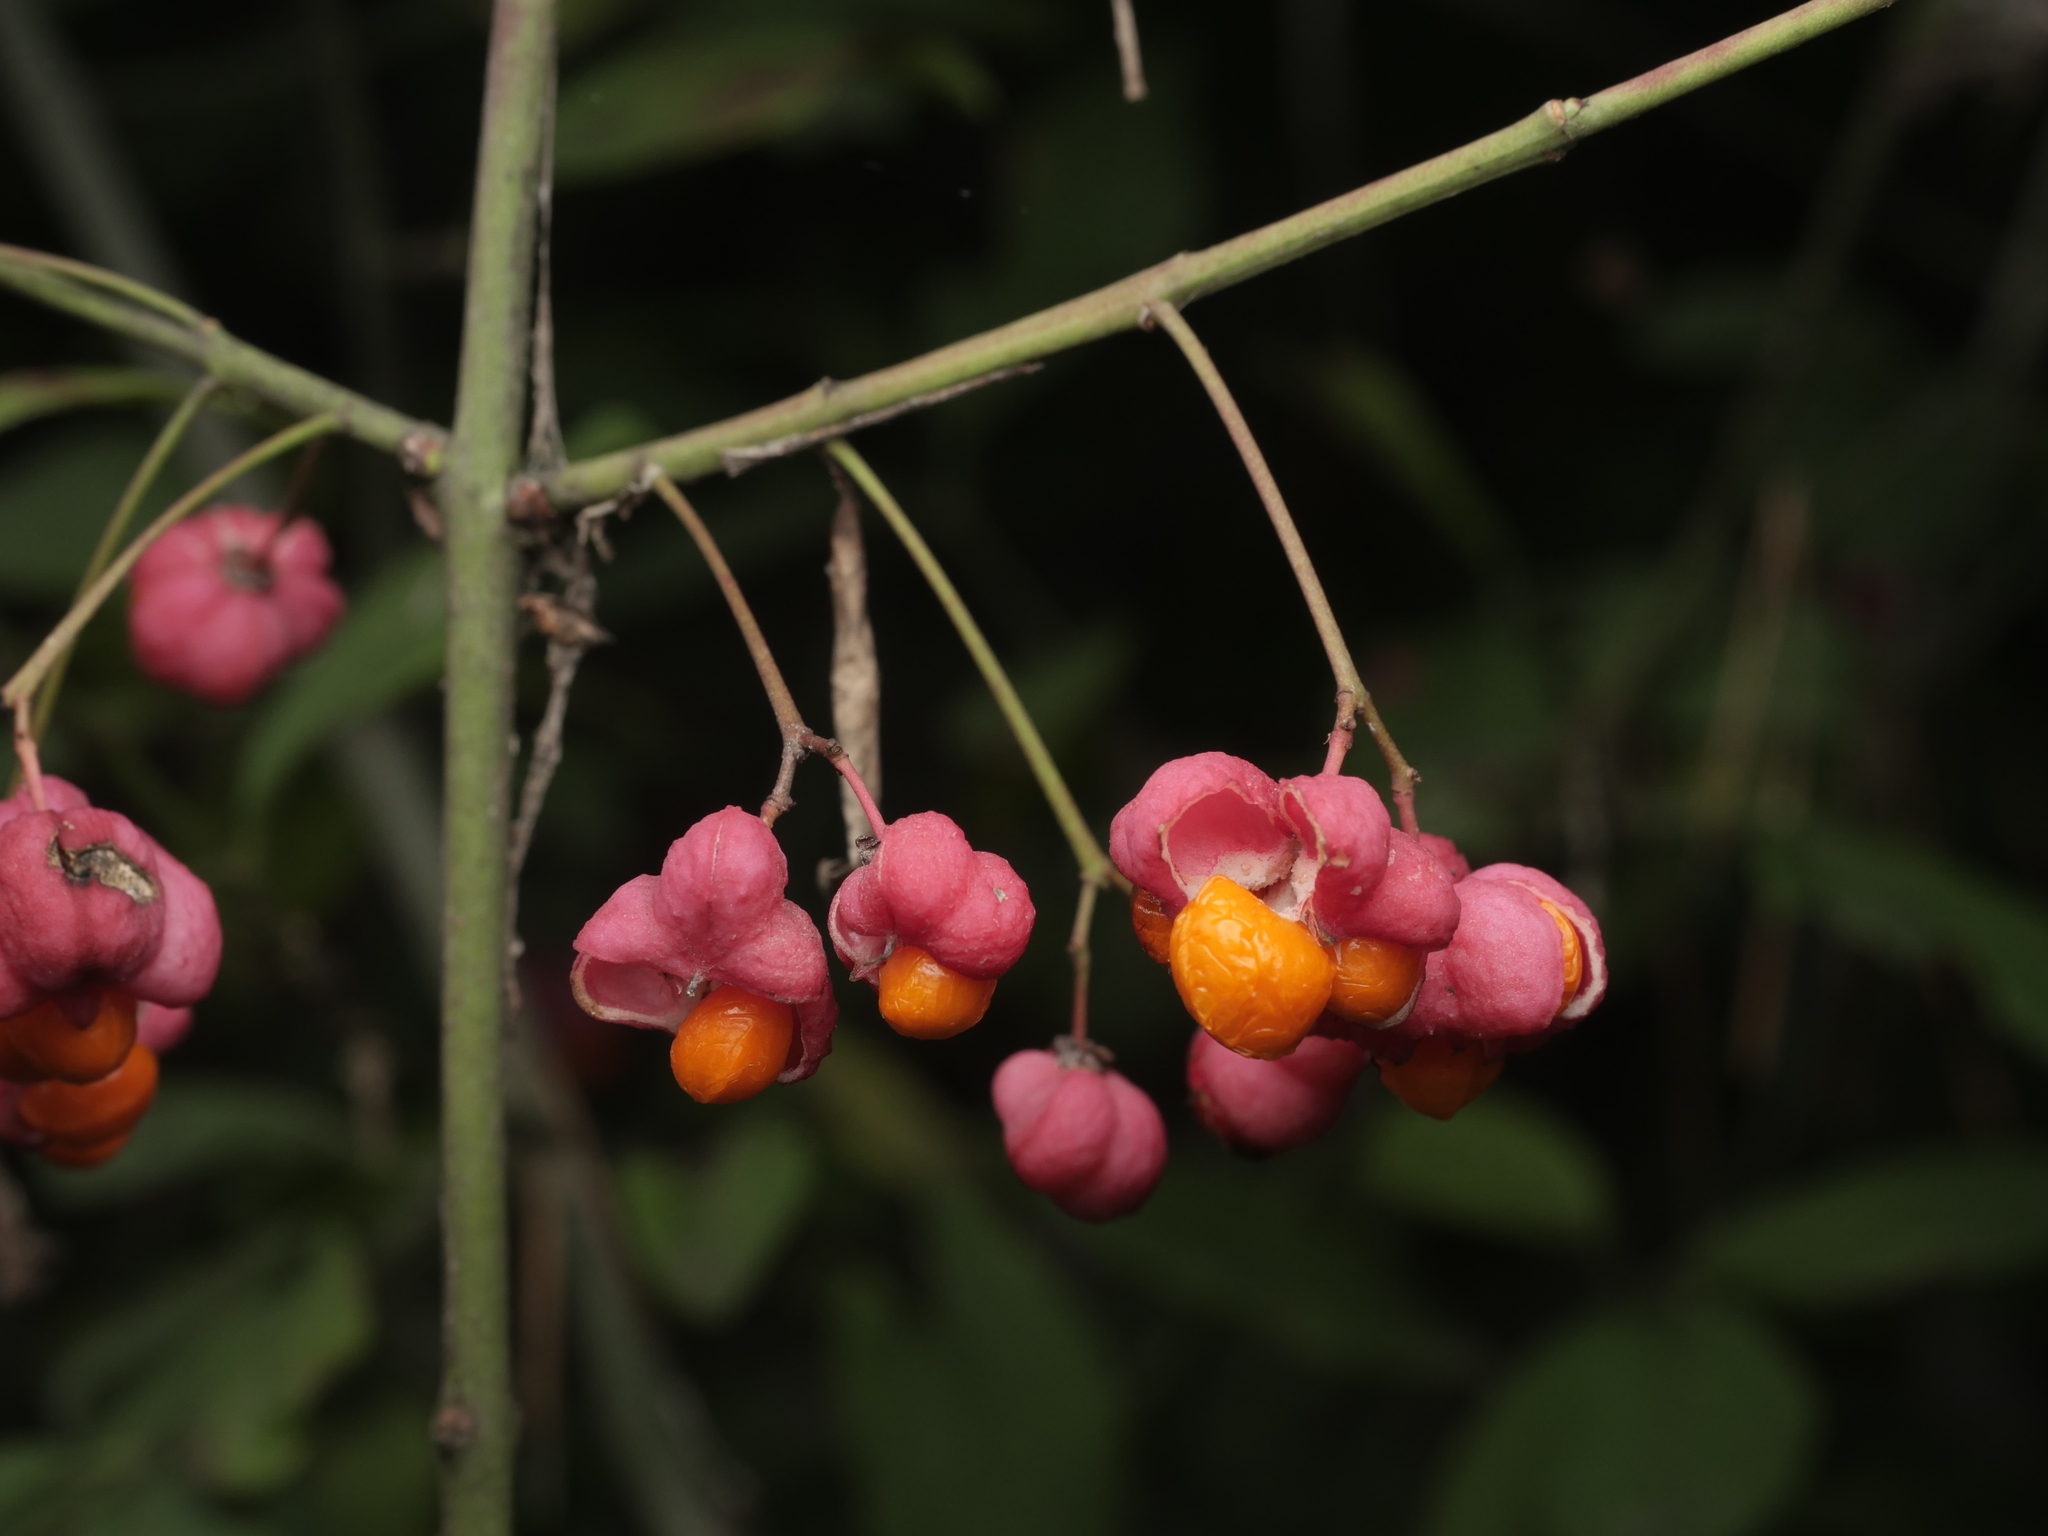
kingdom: Plantae
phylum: Tracheophyta
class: Magnoliopsida
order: Celastrales
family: Celastraceae
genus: Euonymus
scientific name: Euonymus europaeus
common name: Spindle
